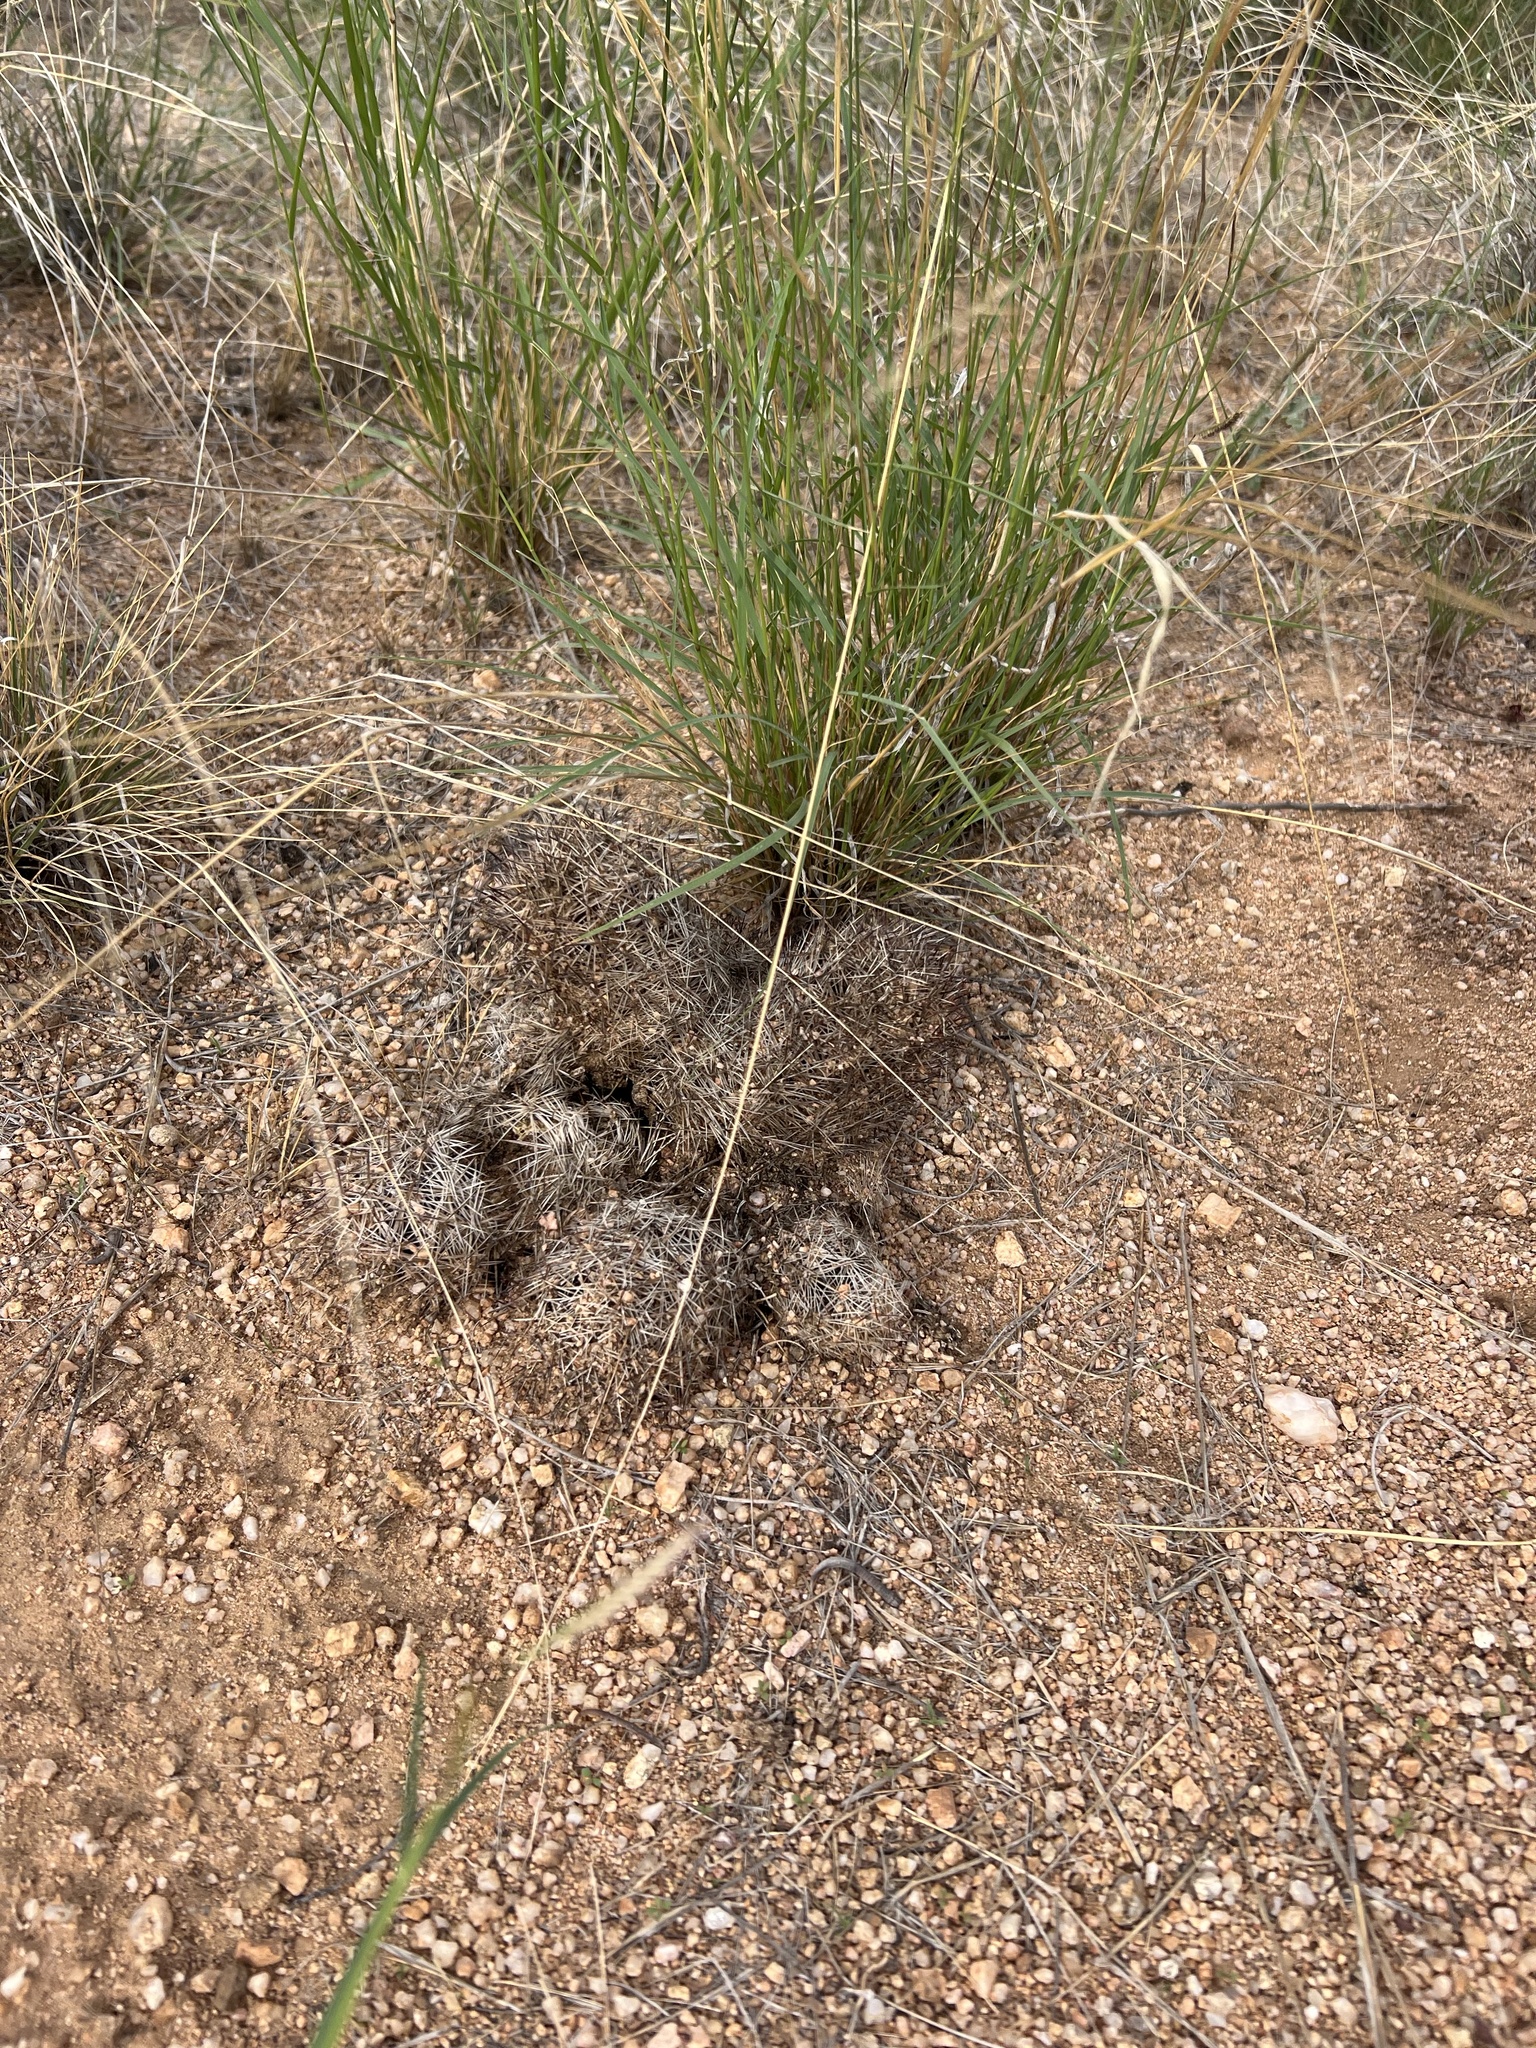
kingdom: Plantae
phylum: Tracheophyta
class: Magnoliopsida
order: Caryophyllales
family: Cactaceae
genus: Sclerocactus
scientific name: Sclerocactus johnsonii
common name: Eight-spine fishhook cactus
